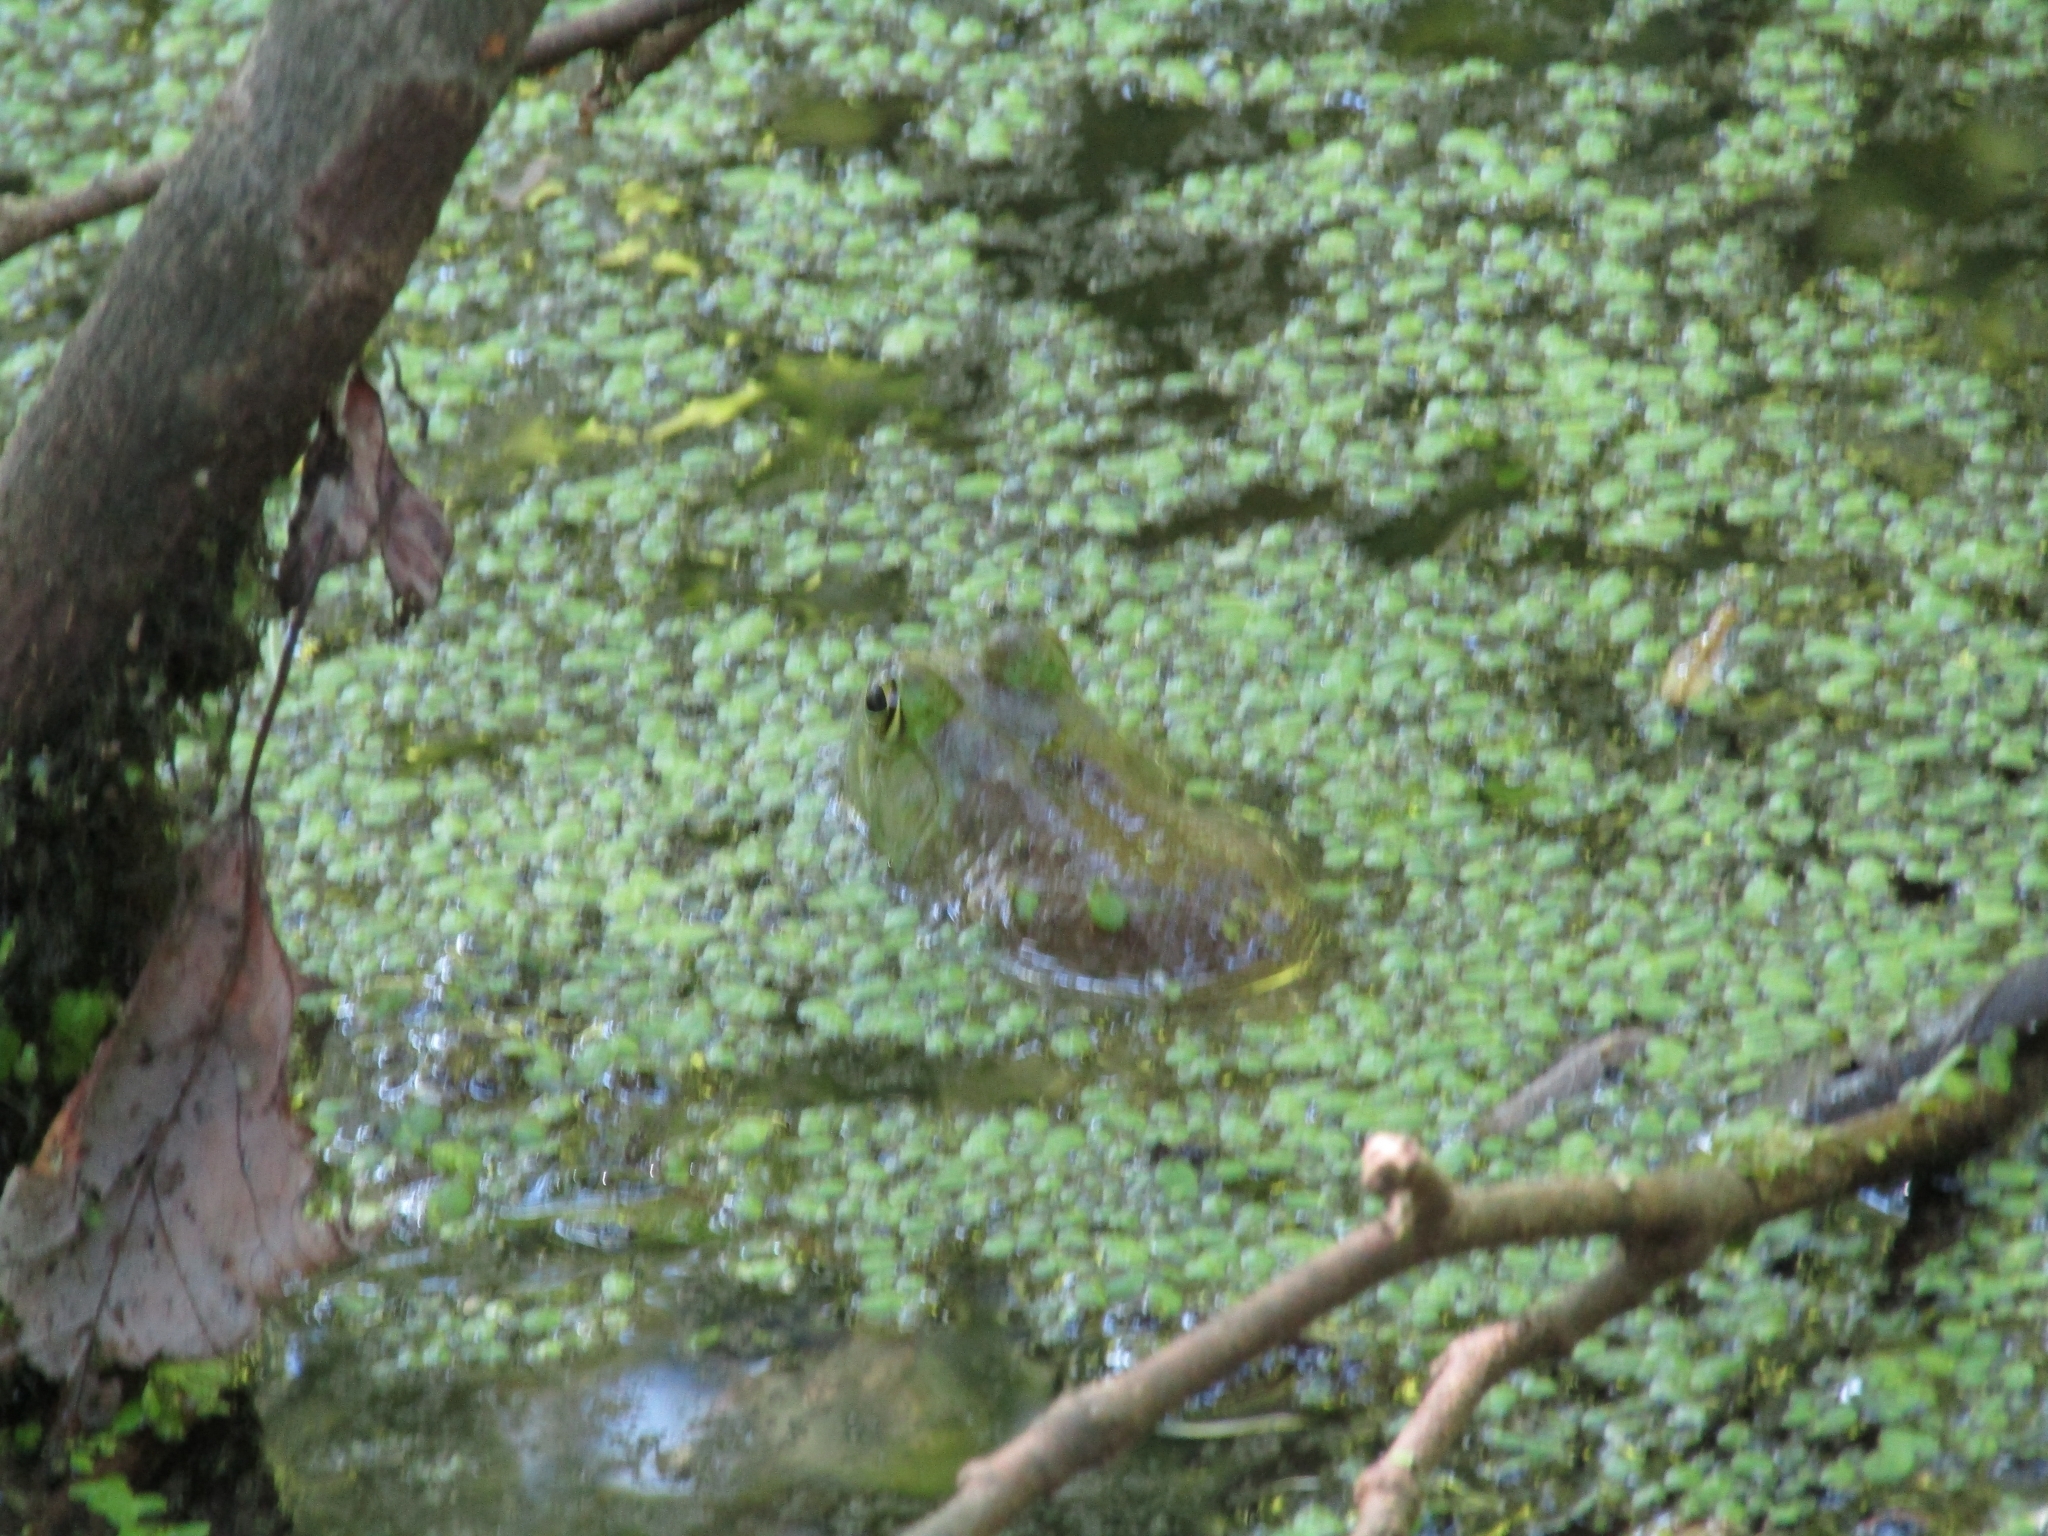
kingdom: Animalia
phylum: Chordata
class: Amphibia
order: Anura
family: Ranidae
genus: Lithobates
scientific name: Lithobates catesbeianus
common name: American bullfrog
